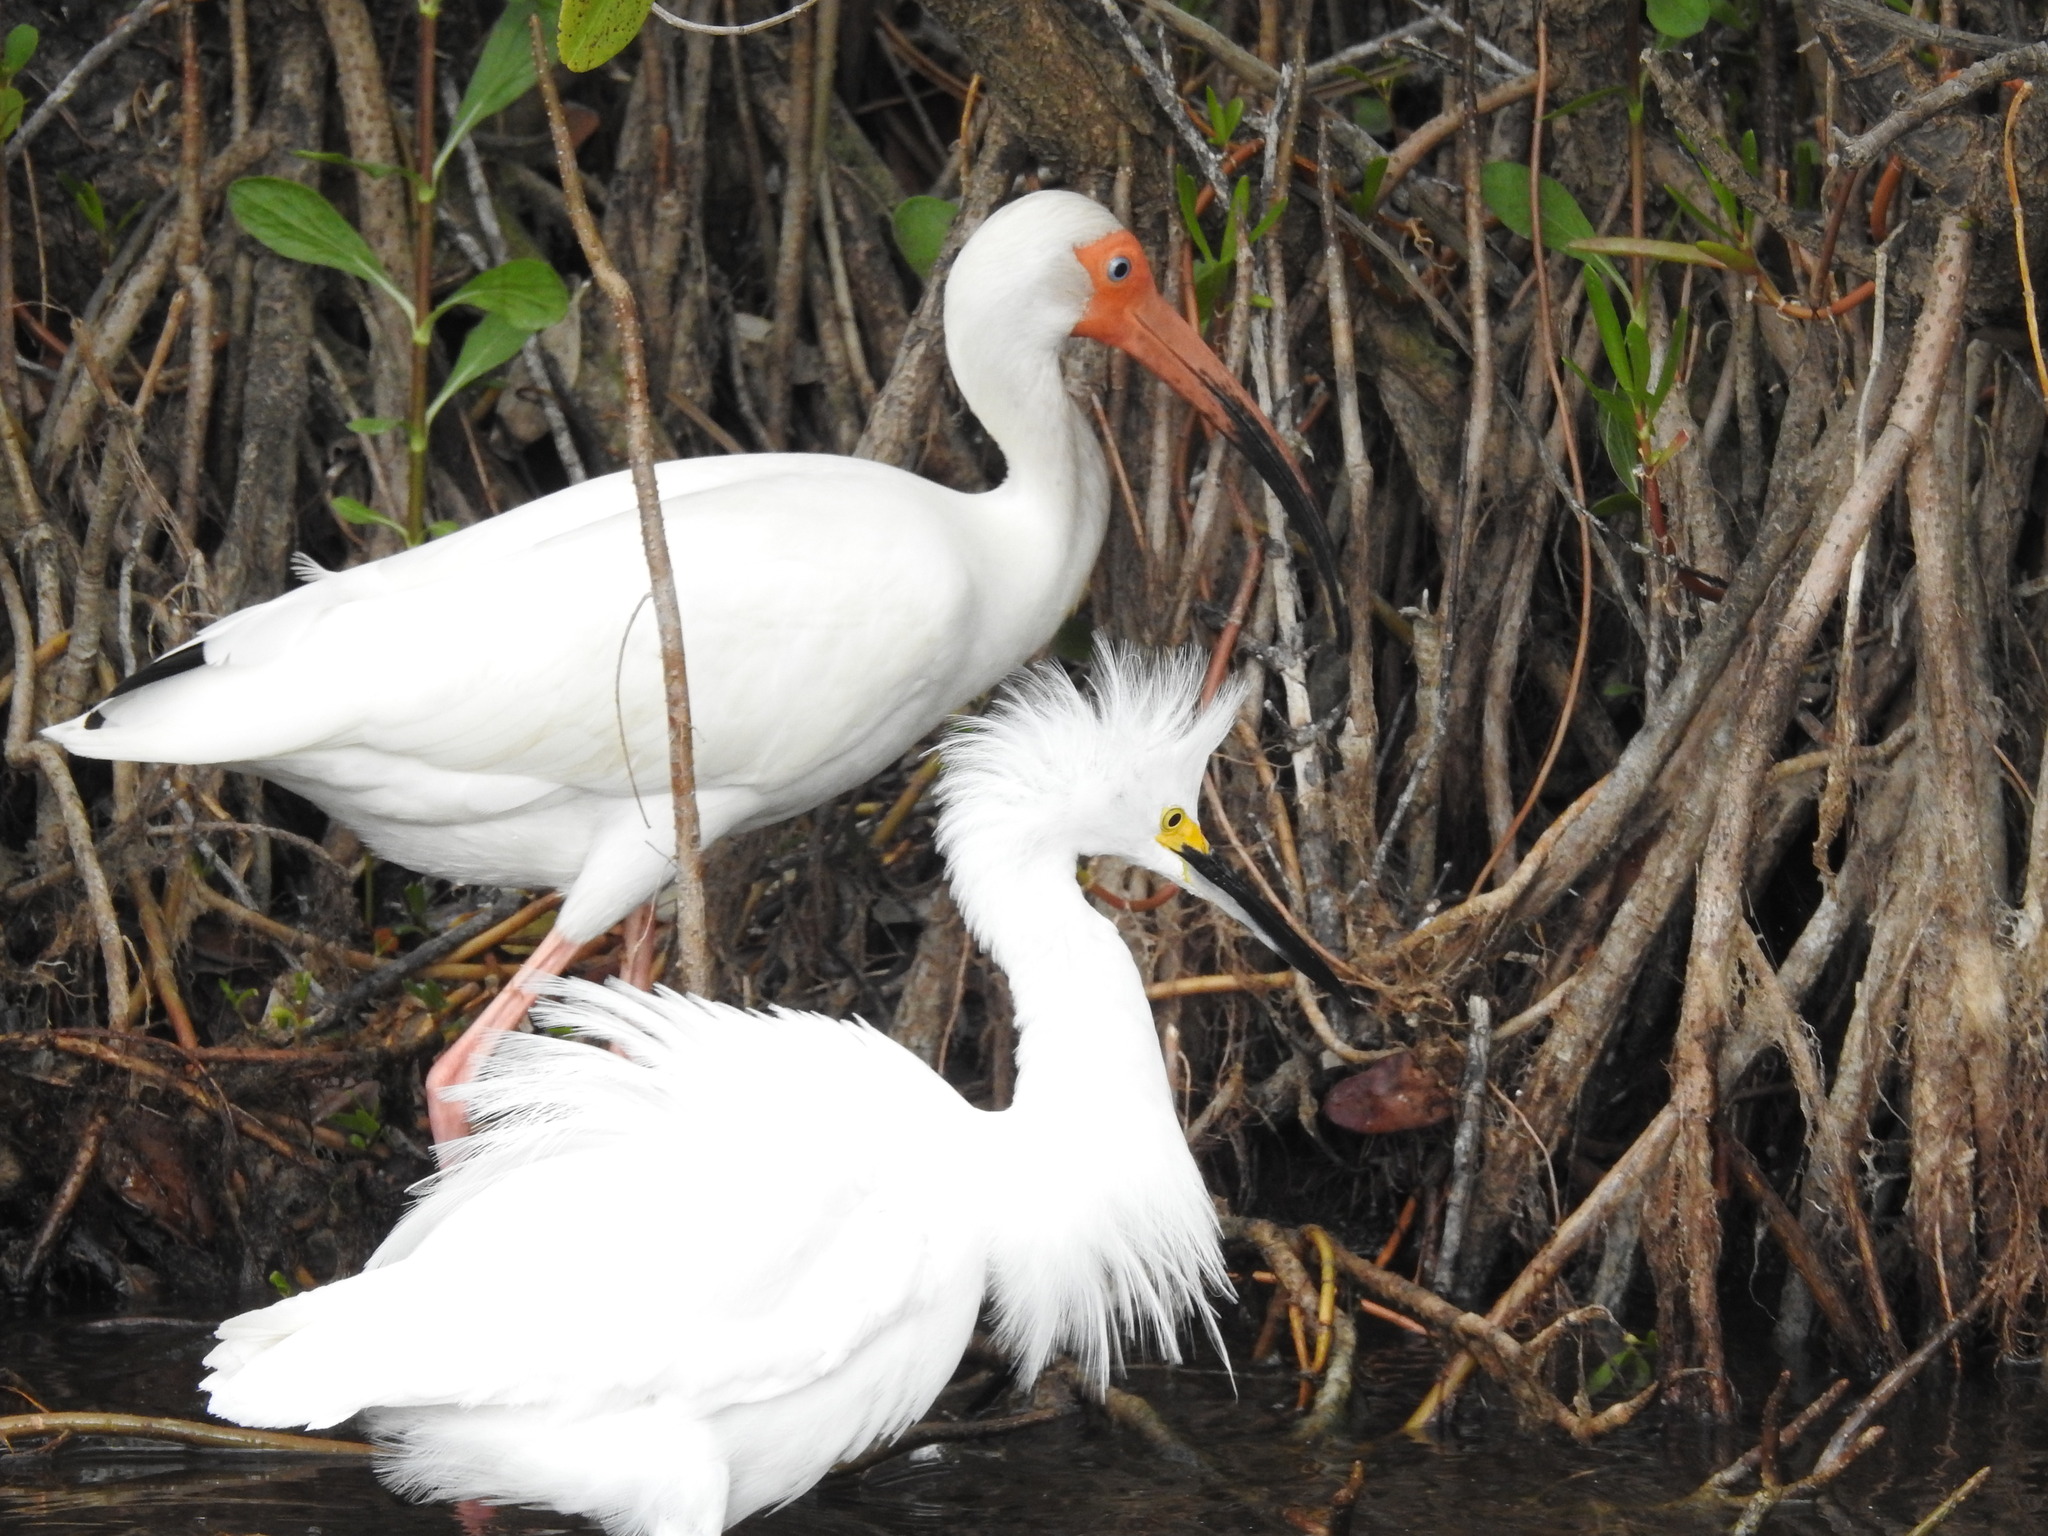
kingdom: Animalia
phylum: Chordata
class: Aves
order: Pelecaniformes
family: Ardeidae
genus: Egretta
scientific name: Egretta thula
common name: Snowy egret
